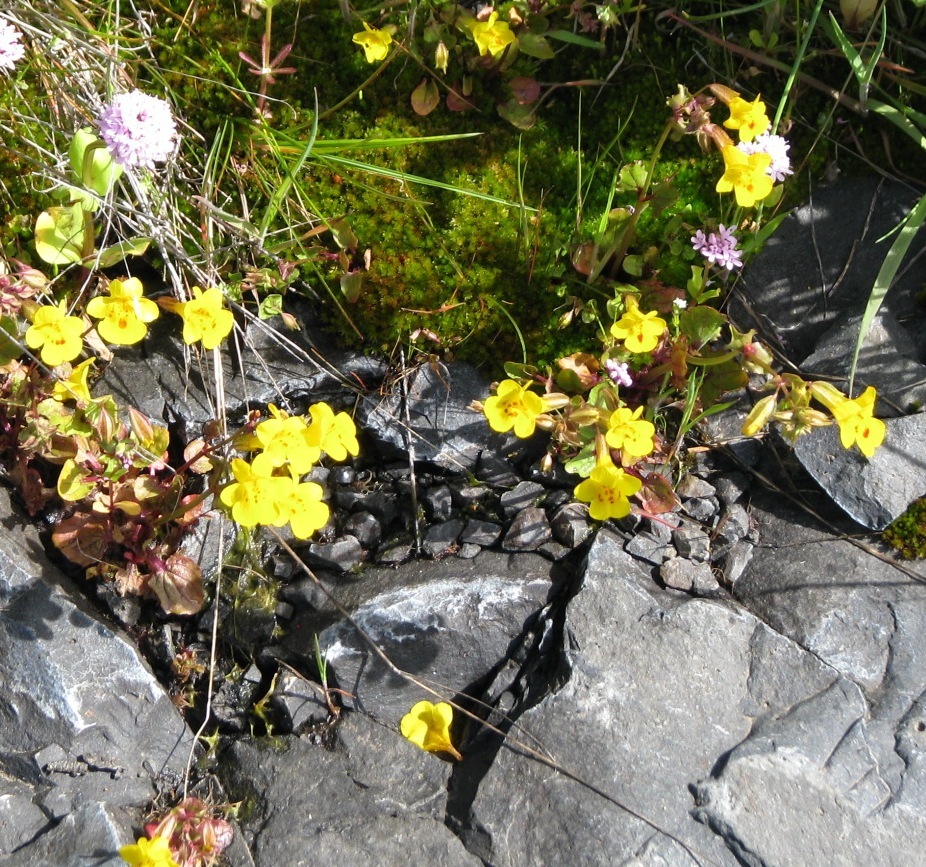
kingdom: Plantae
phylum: Tracheophyta
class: Magnoliopsida
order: Lamiales
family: Phrymaceae
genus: Erythranthe
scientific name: Erythranthe nasuta
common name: Sooke monkeyflower
